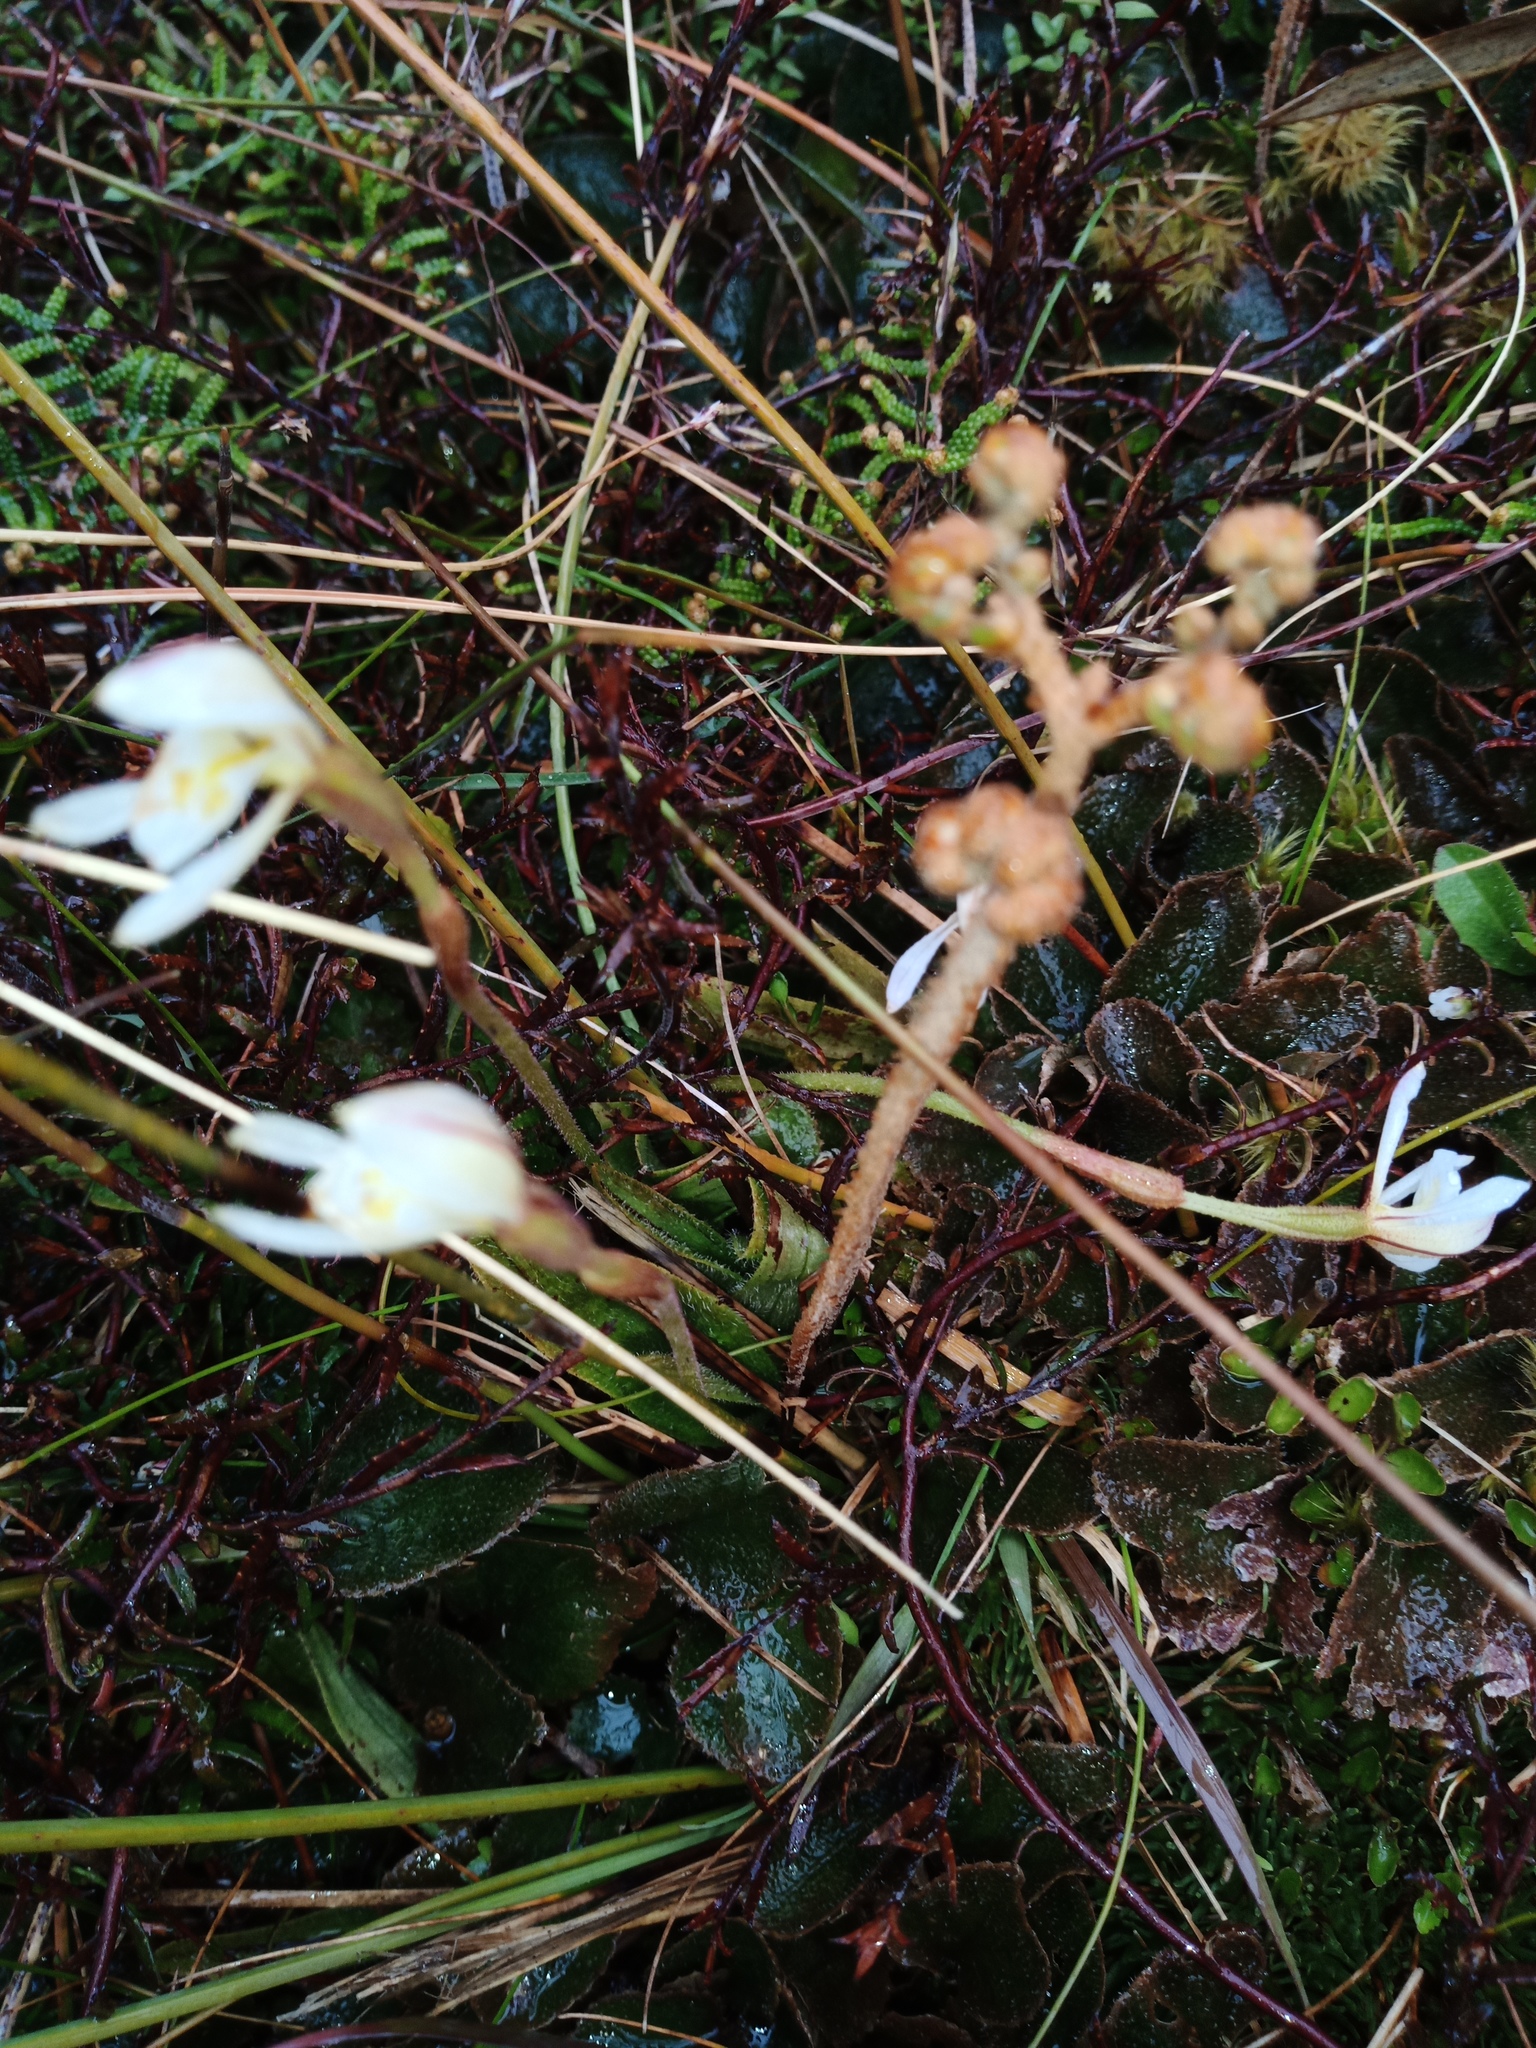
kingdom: Plantae
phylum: Tracheophyta
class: Liliopsida
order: Asparagales
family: Orchidaceae
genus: Aporostylis
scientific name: Aporostylis bifolia
